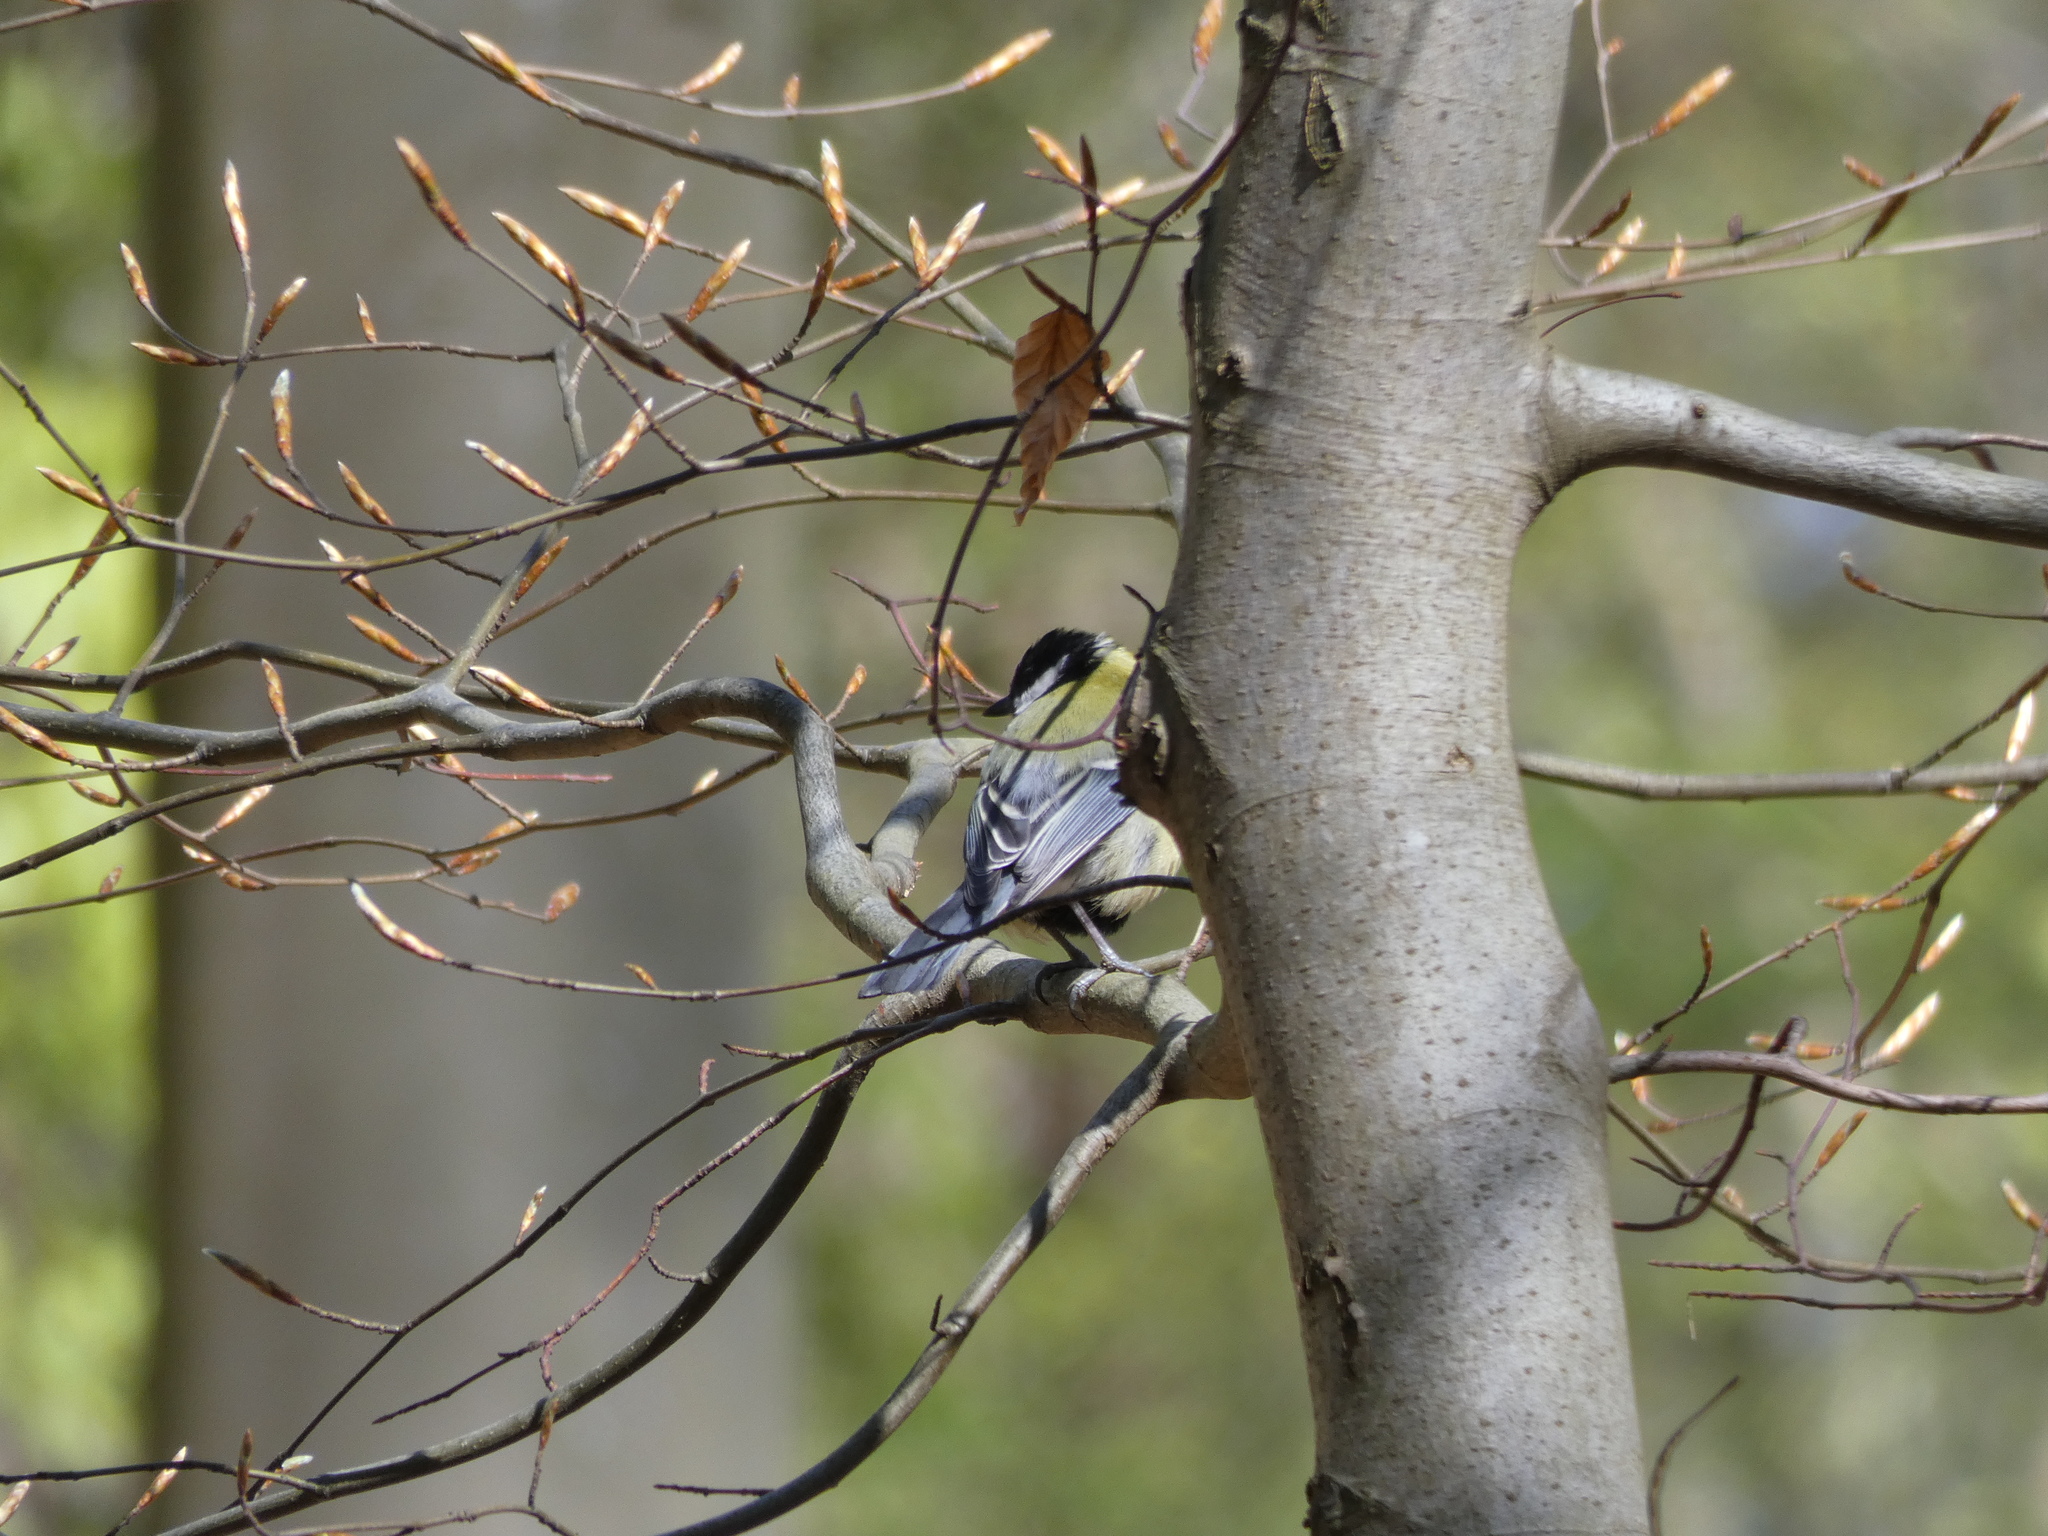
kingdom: Animalia
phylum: Chordata
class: Aves
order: Passeriformes
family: Paridae
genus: Parus
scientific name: Parus major
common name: Great tit
